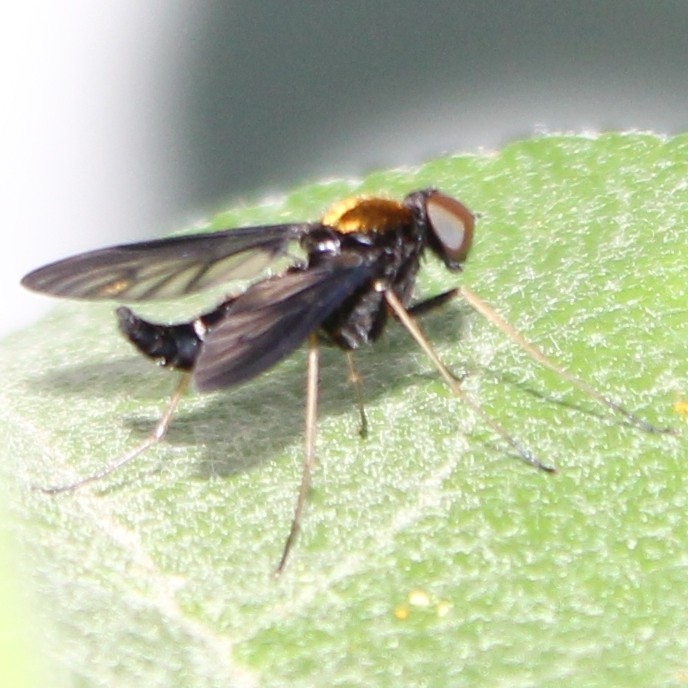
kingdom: Animalia
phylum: Arthropoda
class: Insecta
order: Diptera
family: Rhagionidae
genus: Chrysopilus
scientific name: Chrysopilus thoracicus
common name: Golden-backed snipe fly
